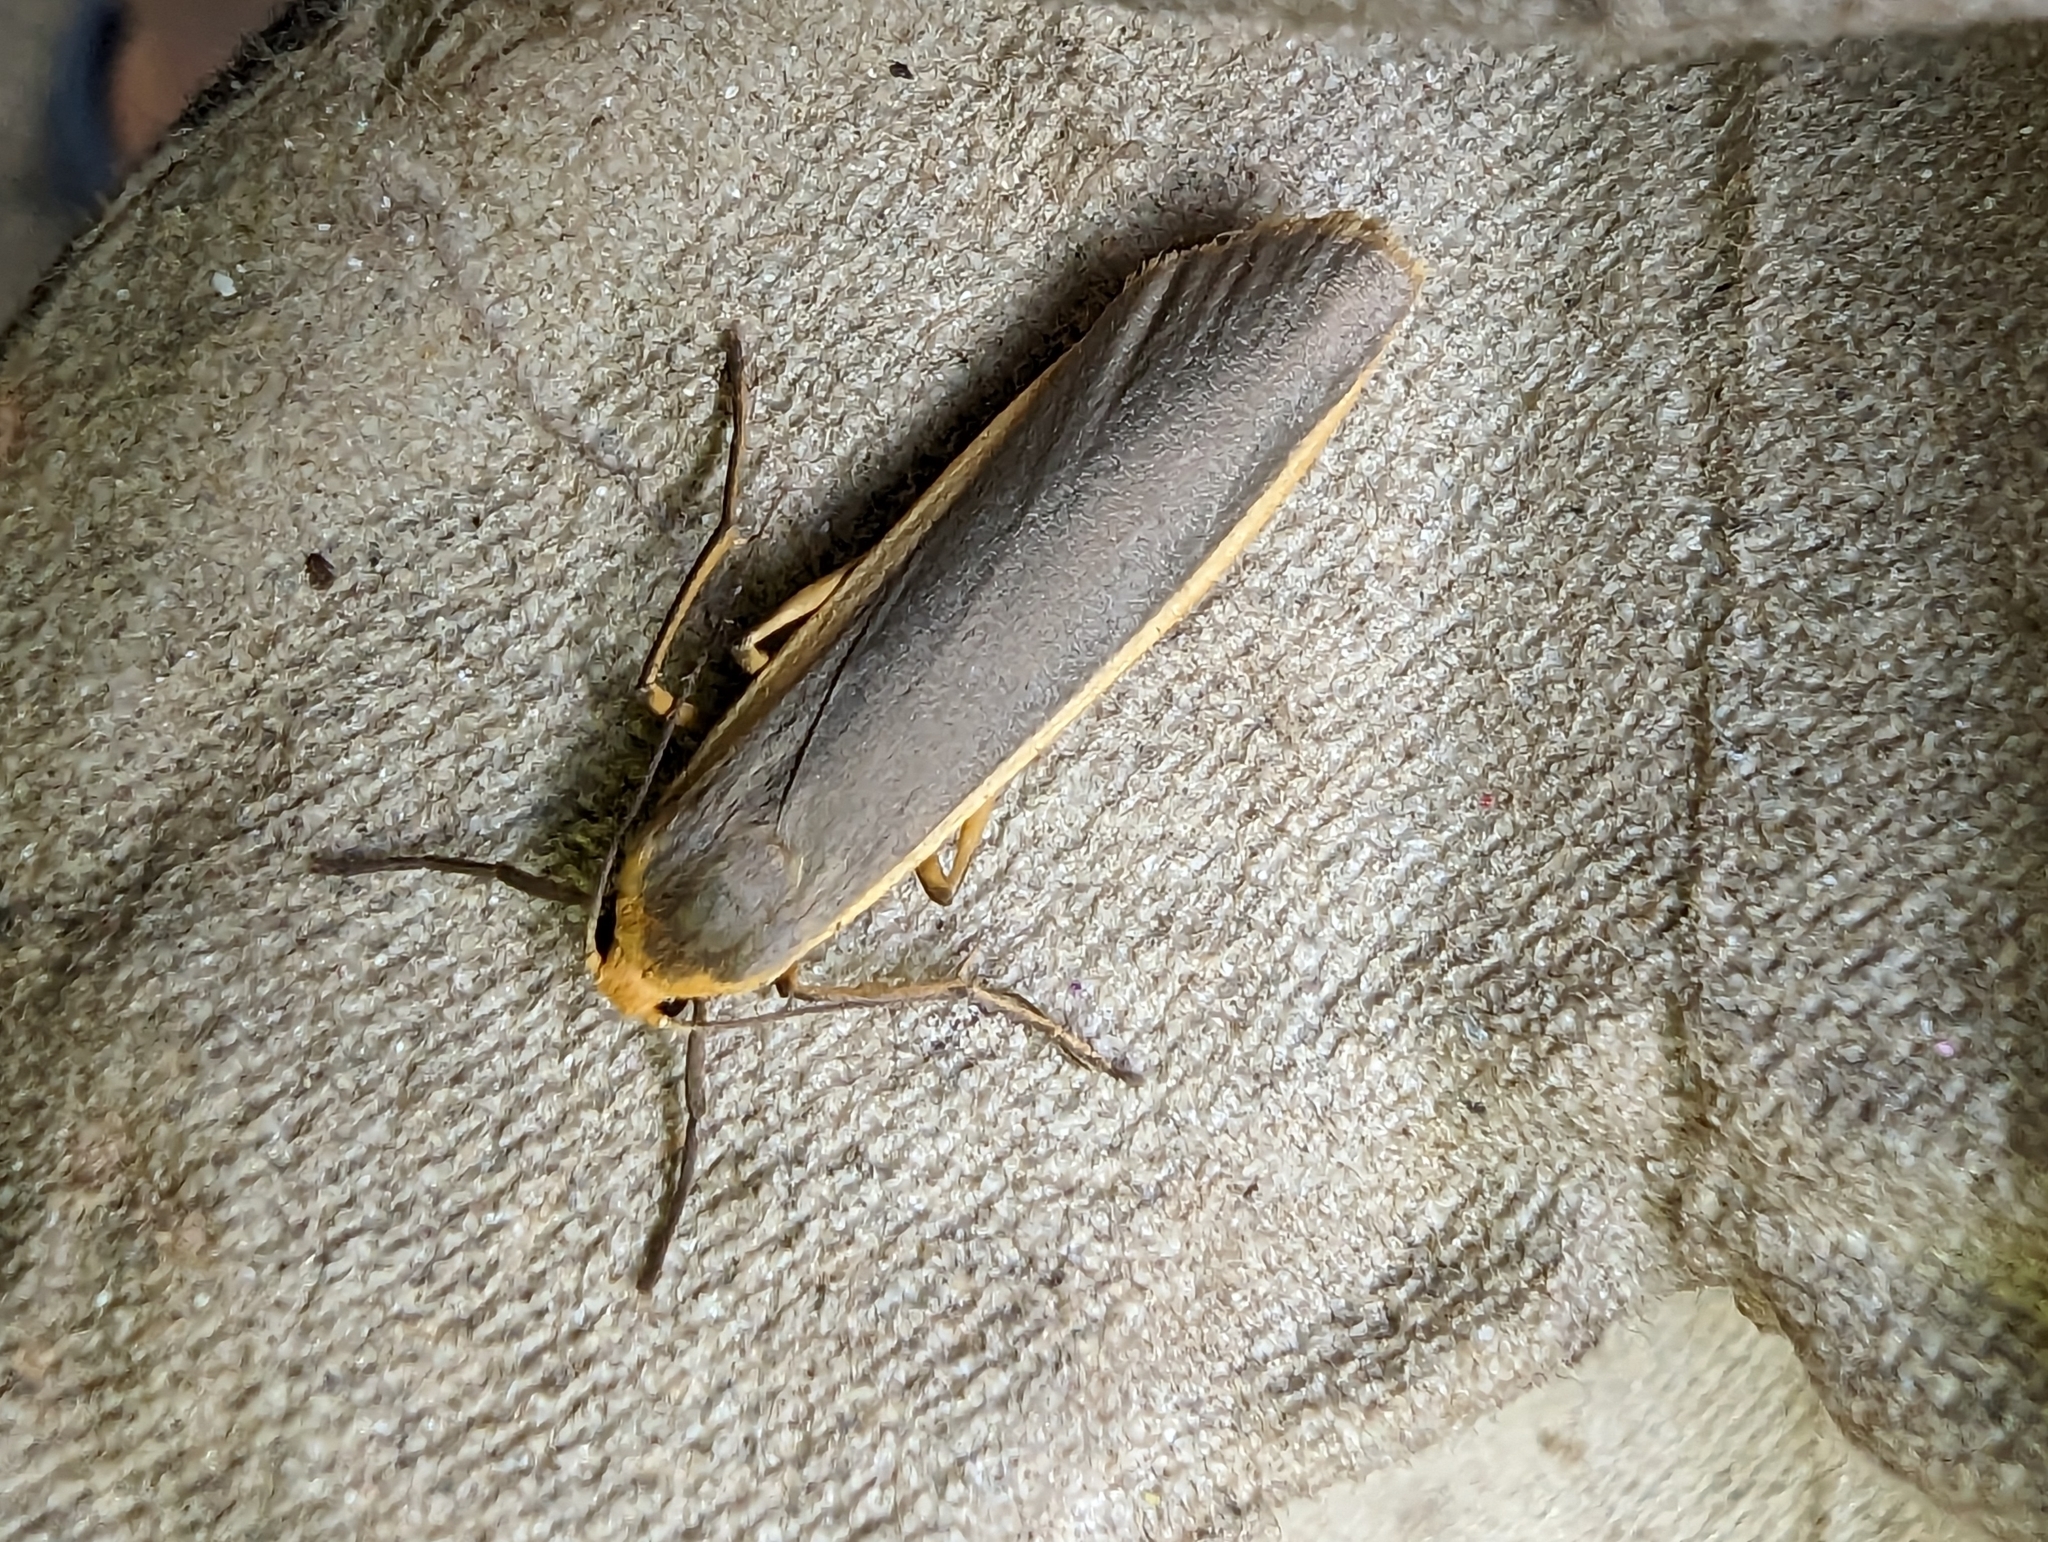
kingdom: Animalia
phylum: Arthropoda
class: Insecta
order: Lepidoptera
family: Erebidae
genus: Nyea
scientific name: Nyea lurideola
